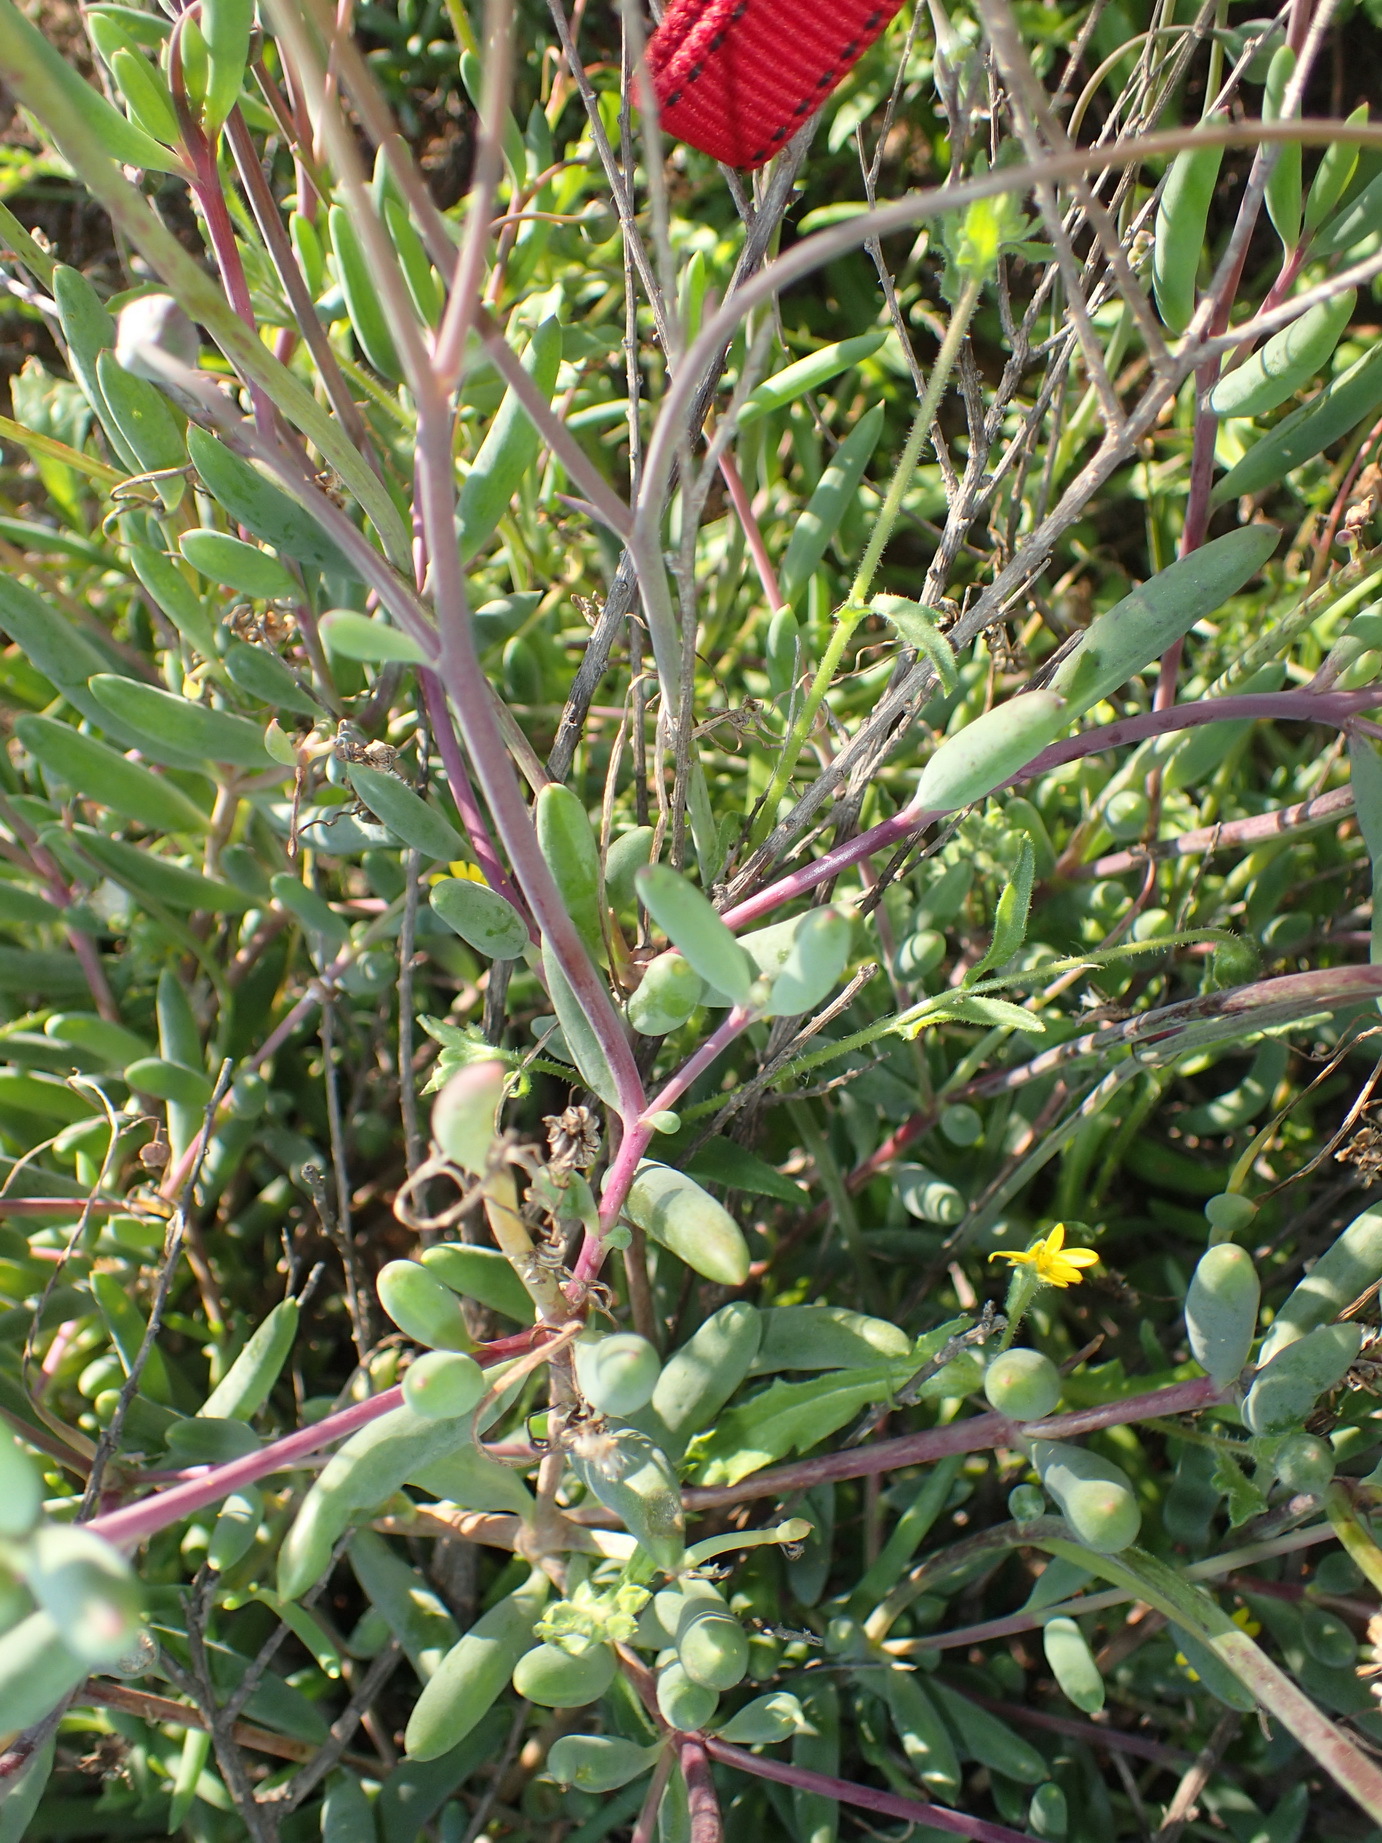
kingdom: Plantae
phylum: Tracheophyta
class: Magnoliopsida
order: Asterales
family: Asteraceae
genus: Crassothonna
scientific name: Crassothonna alba
